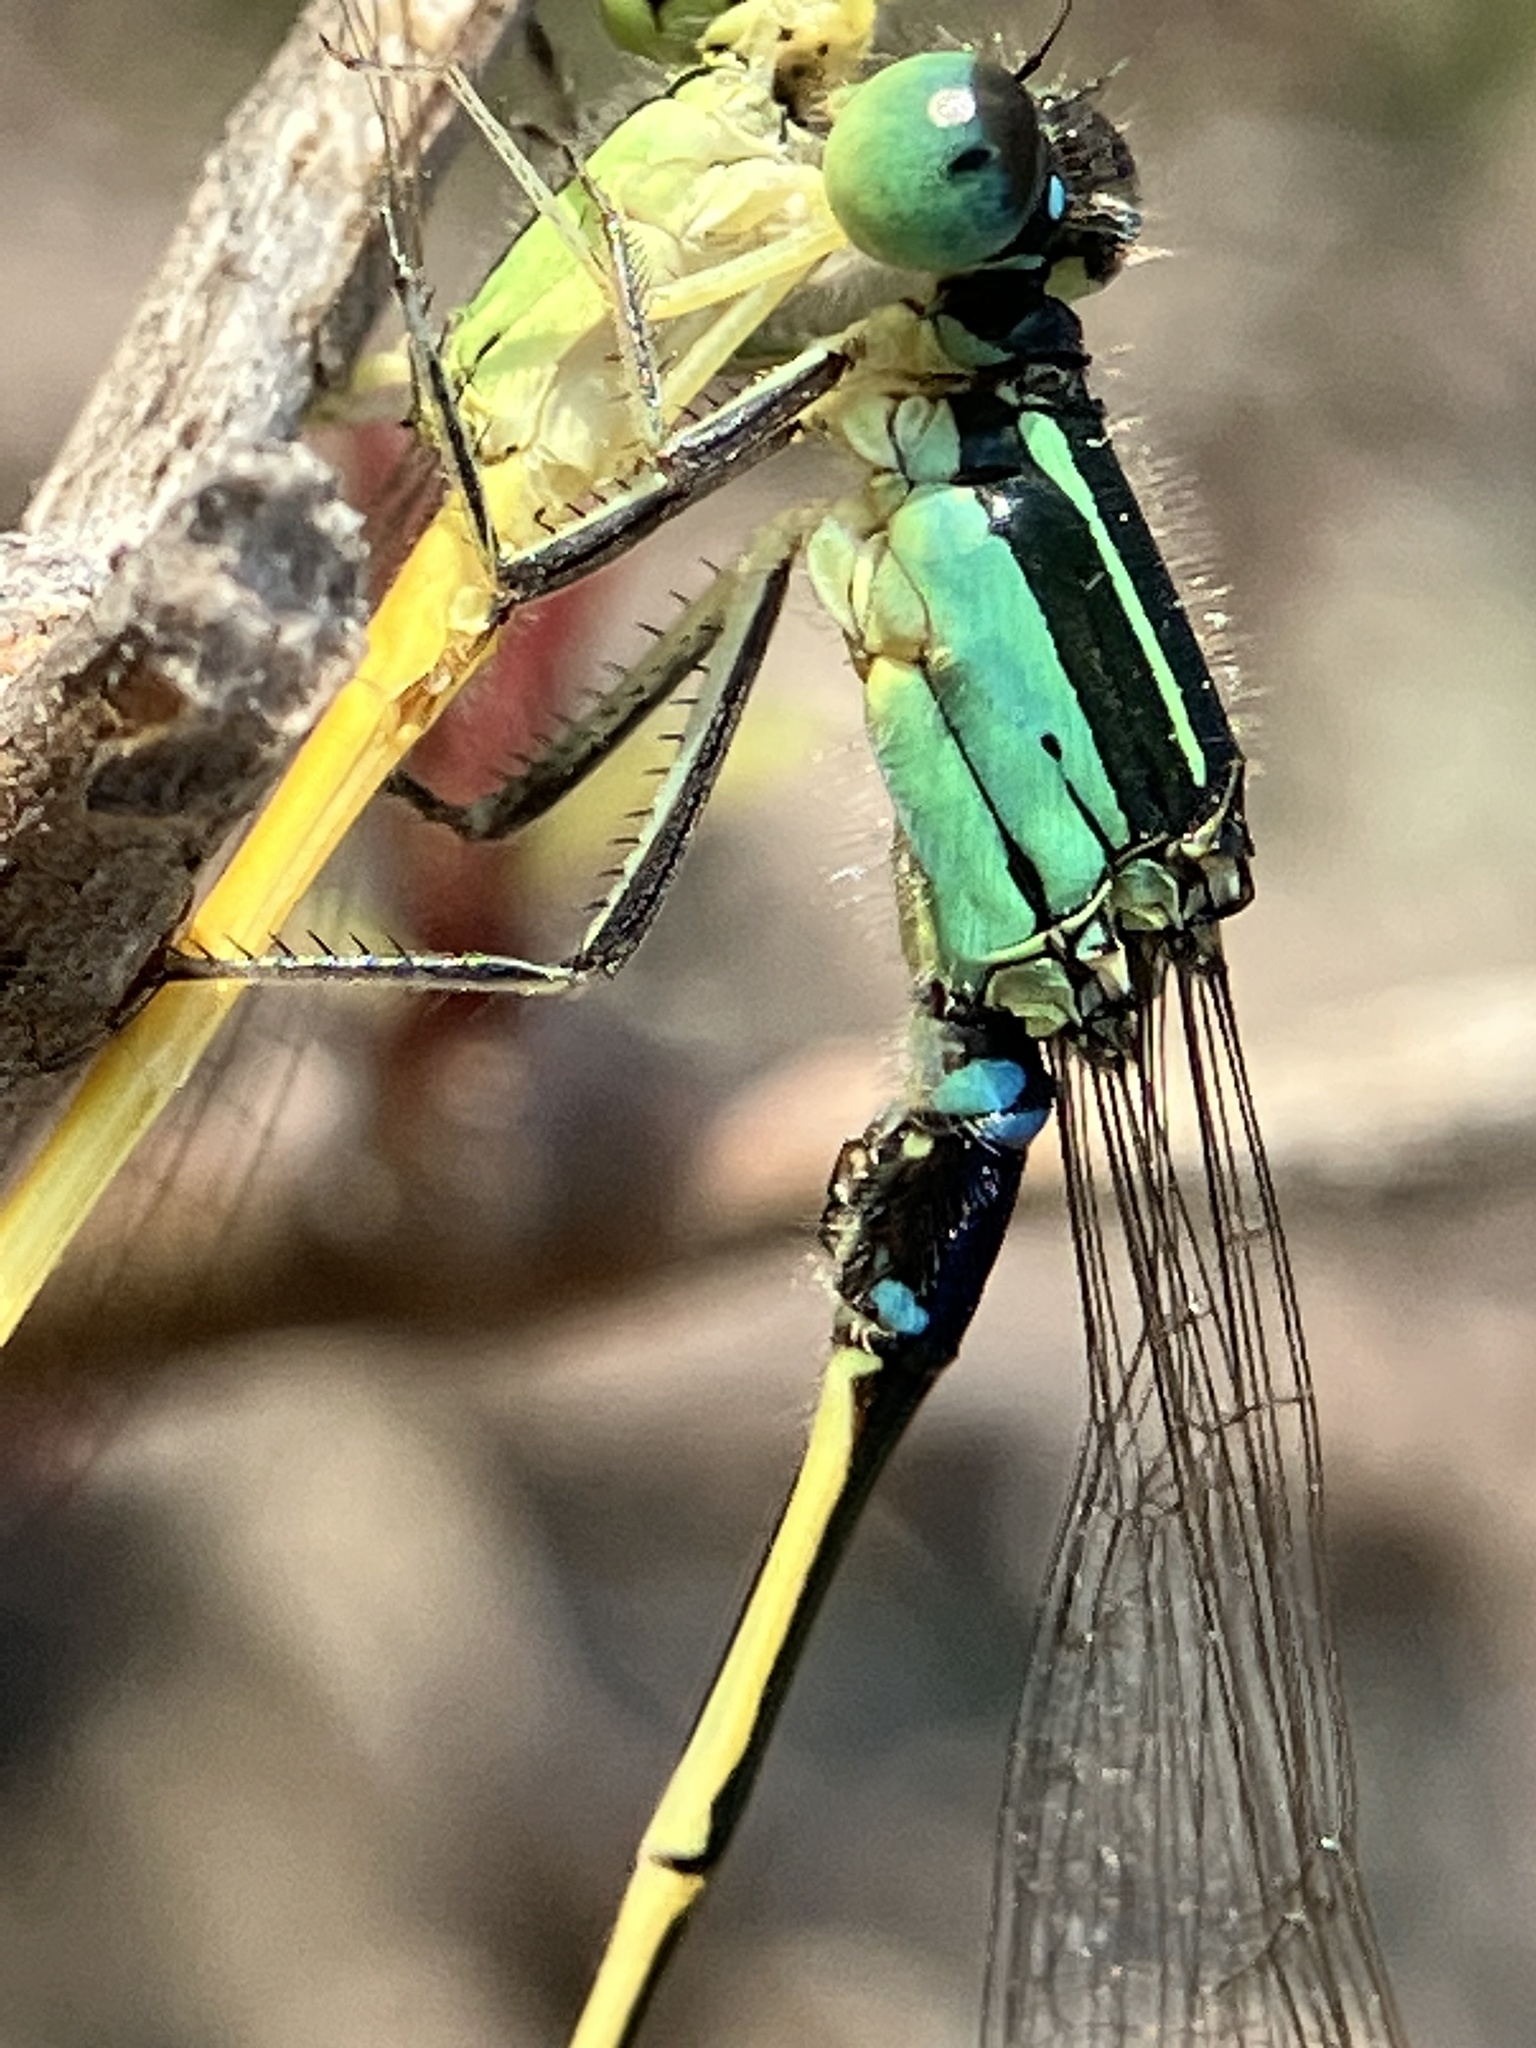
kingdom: Animalia
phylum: Arthropoda
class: Insecta
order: Odonata
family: Coenagrionidae
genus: Ischnura
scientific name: Ischnura senegalensis
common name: Tropical bluetail
